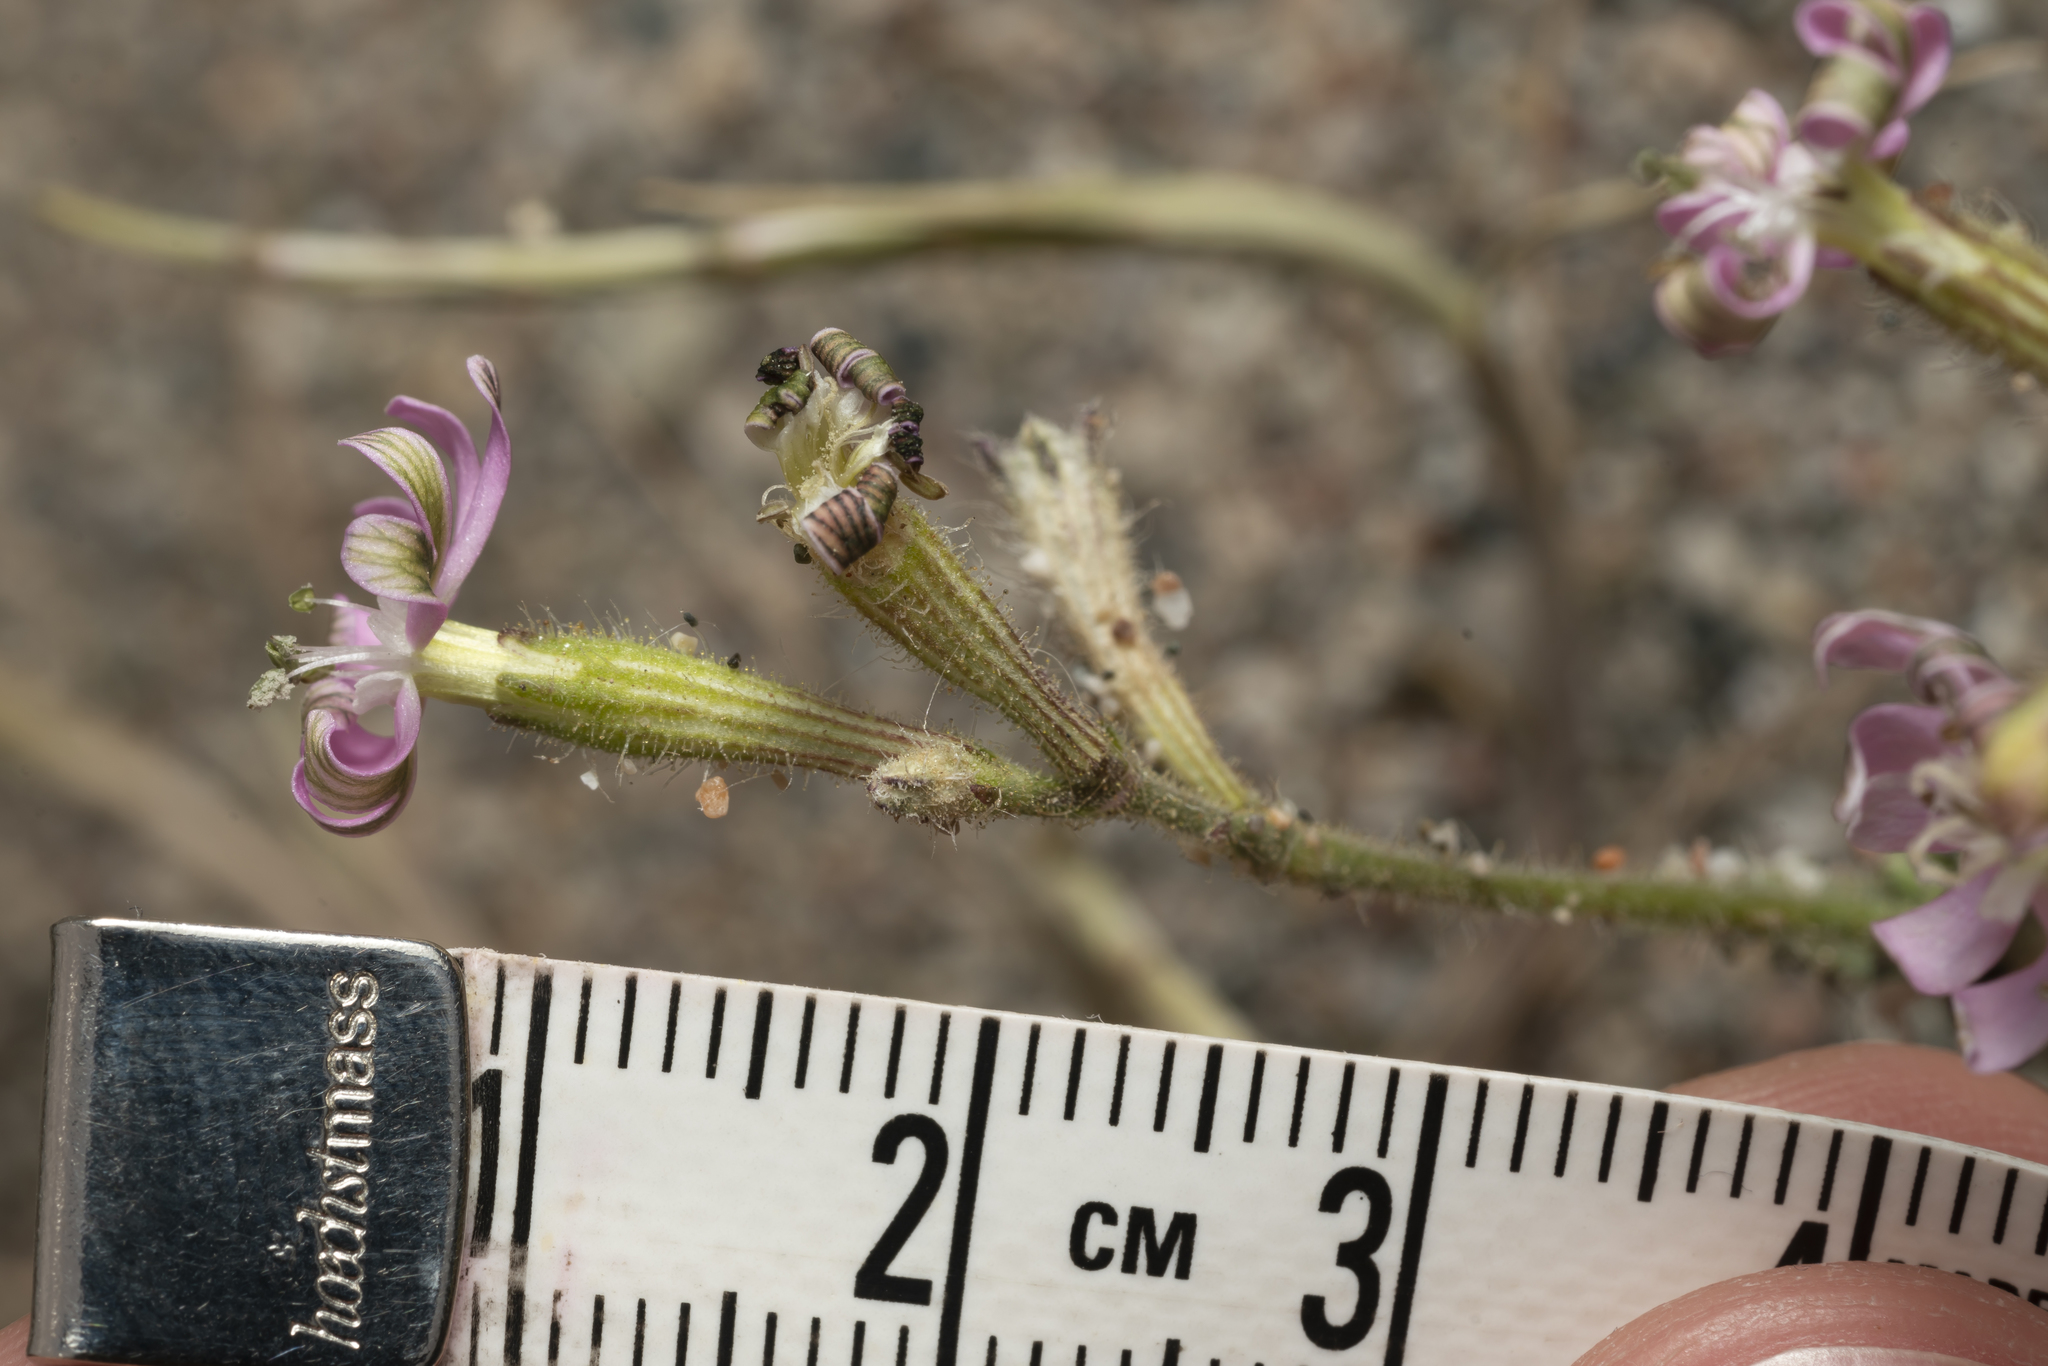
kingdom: Plantae
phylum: Tracheophyta
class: Magnoliopsida
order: Caryophyllales
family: Caryophyllaceae
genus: Silene
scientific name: Silene discolor
